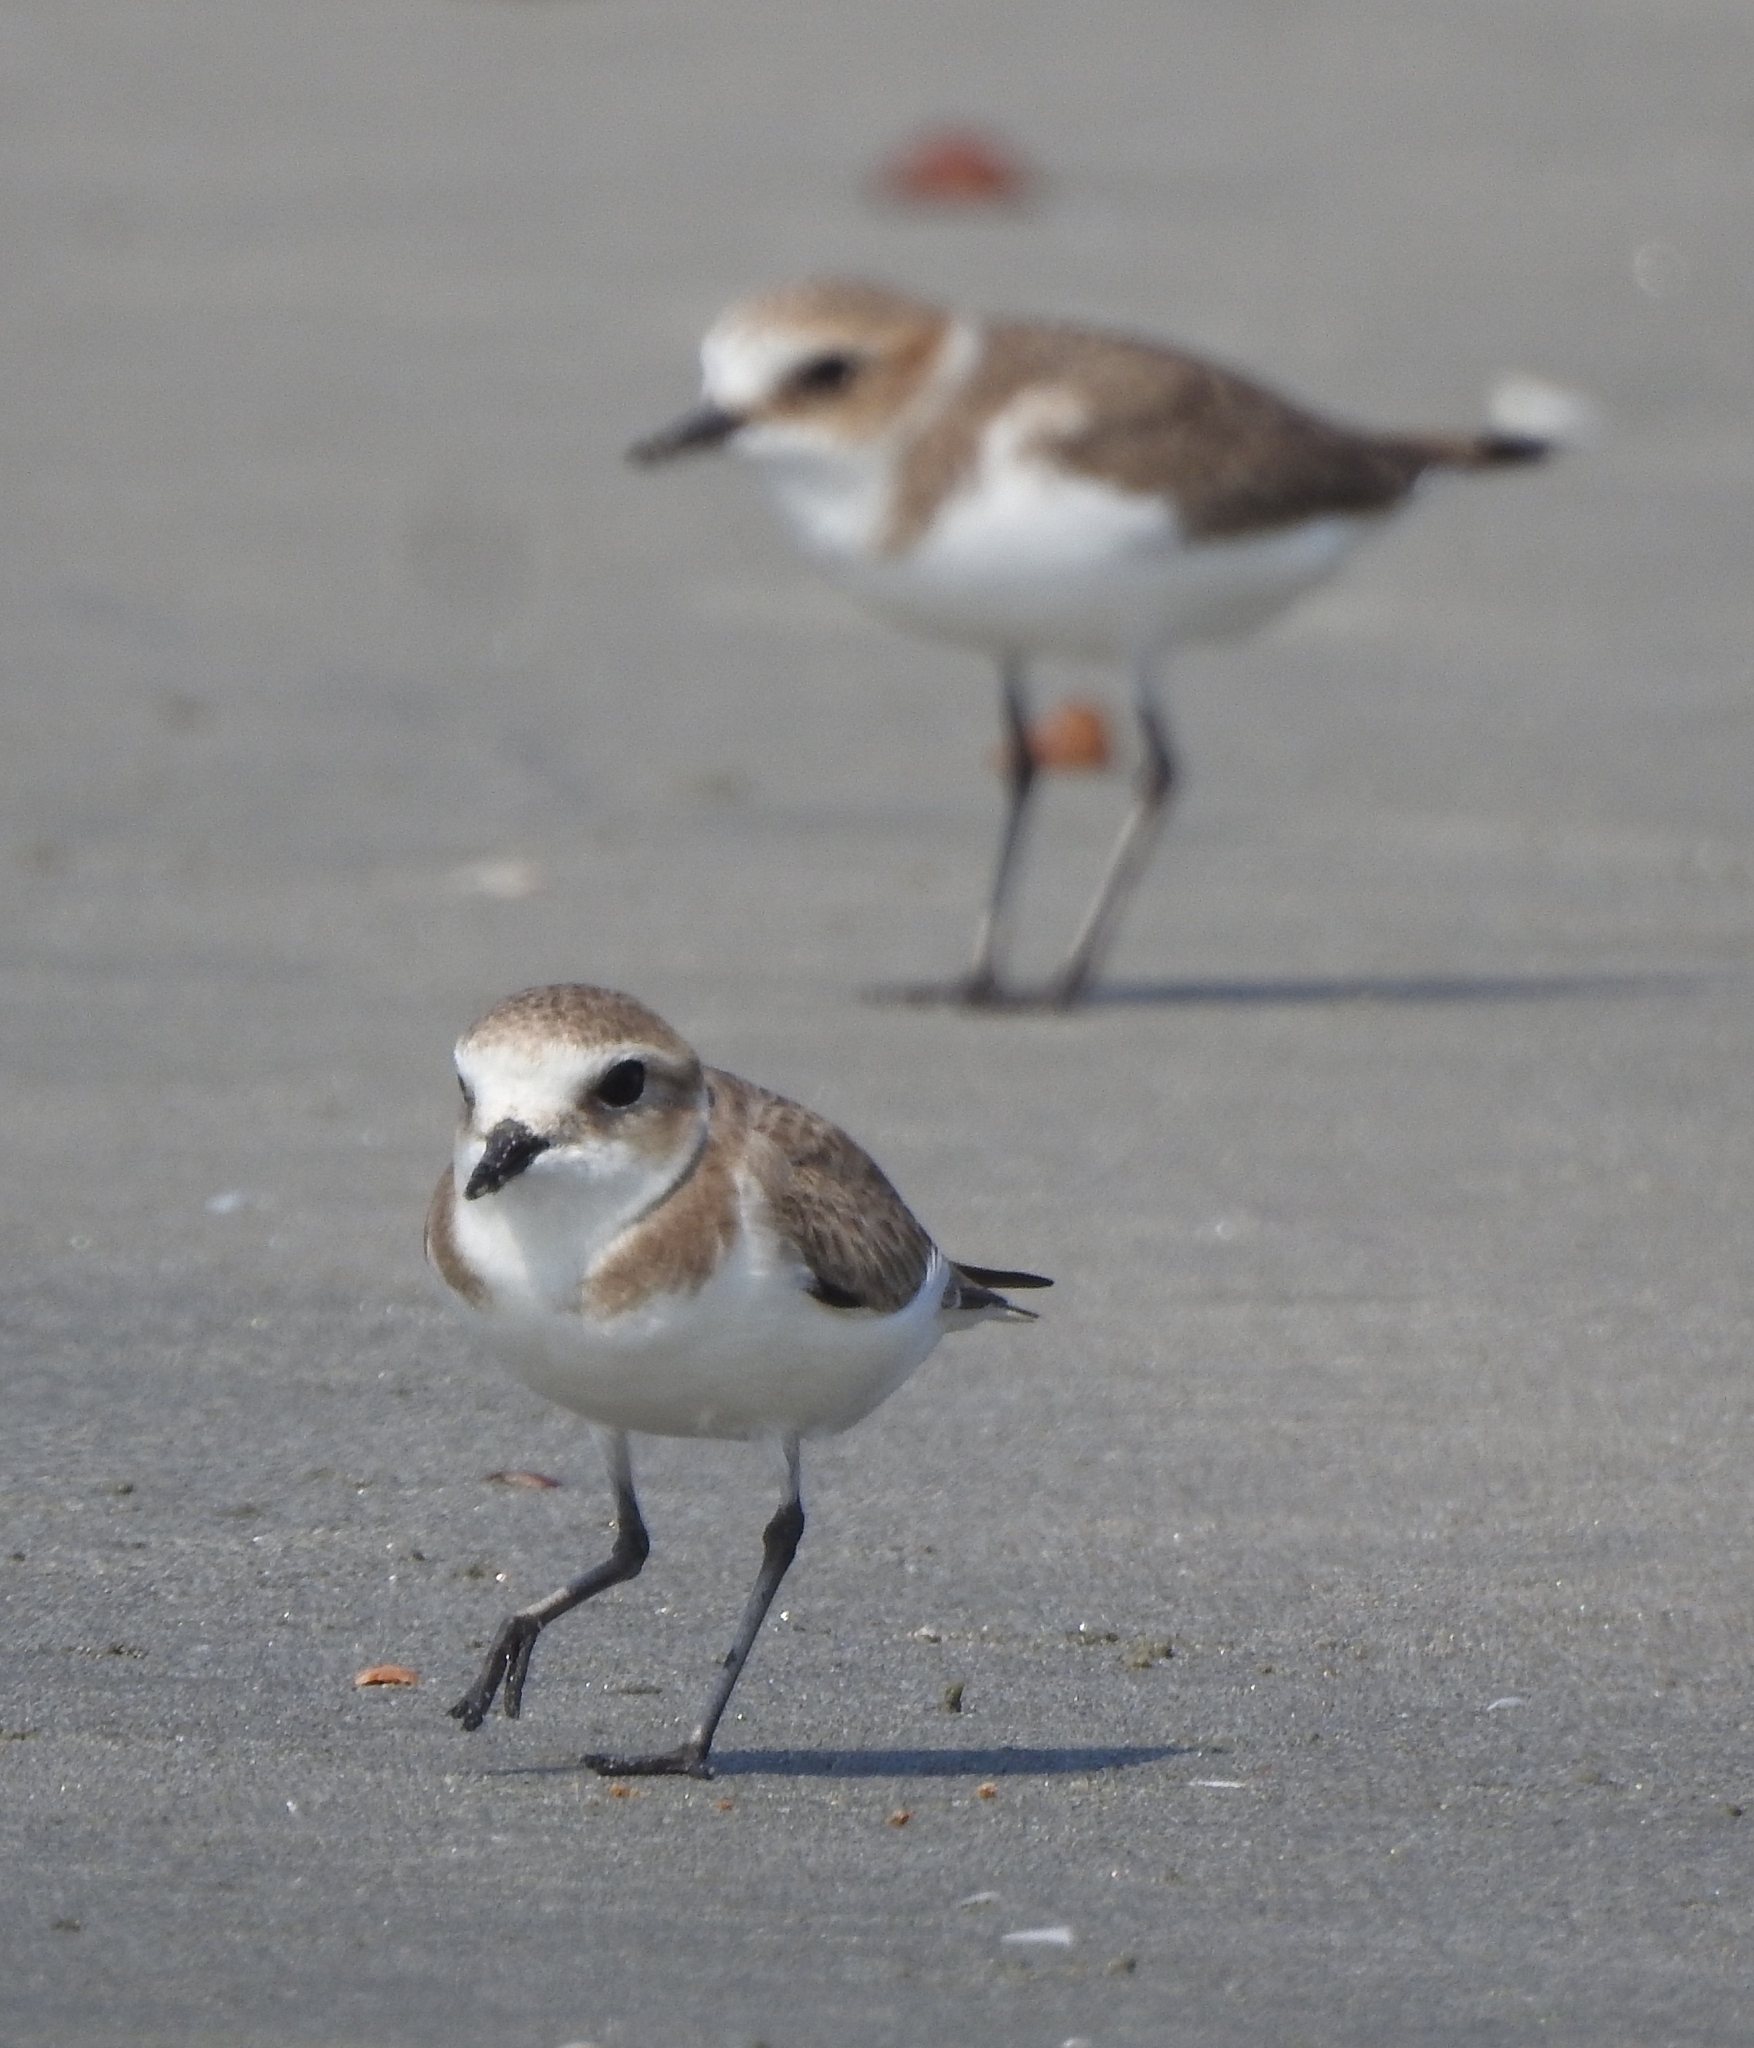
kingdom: Animalia
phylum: Chordata
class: Aves
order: Charadriiformes
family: Charadriidae
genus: Anarhynchus
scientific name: Anarhynchus
